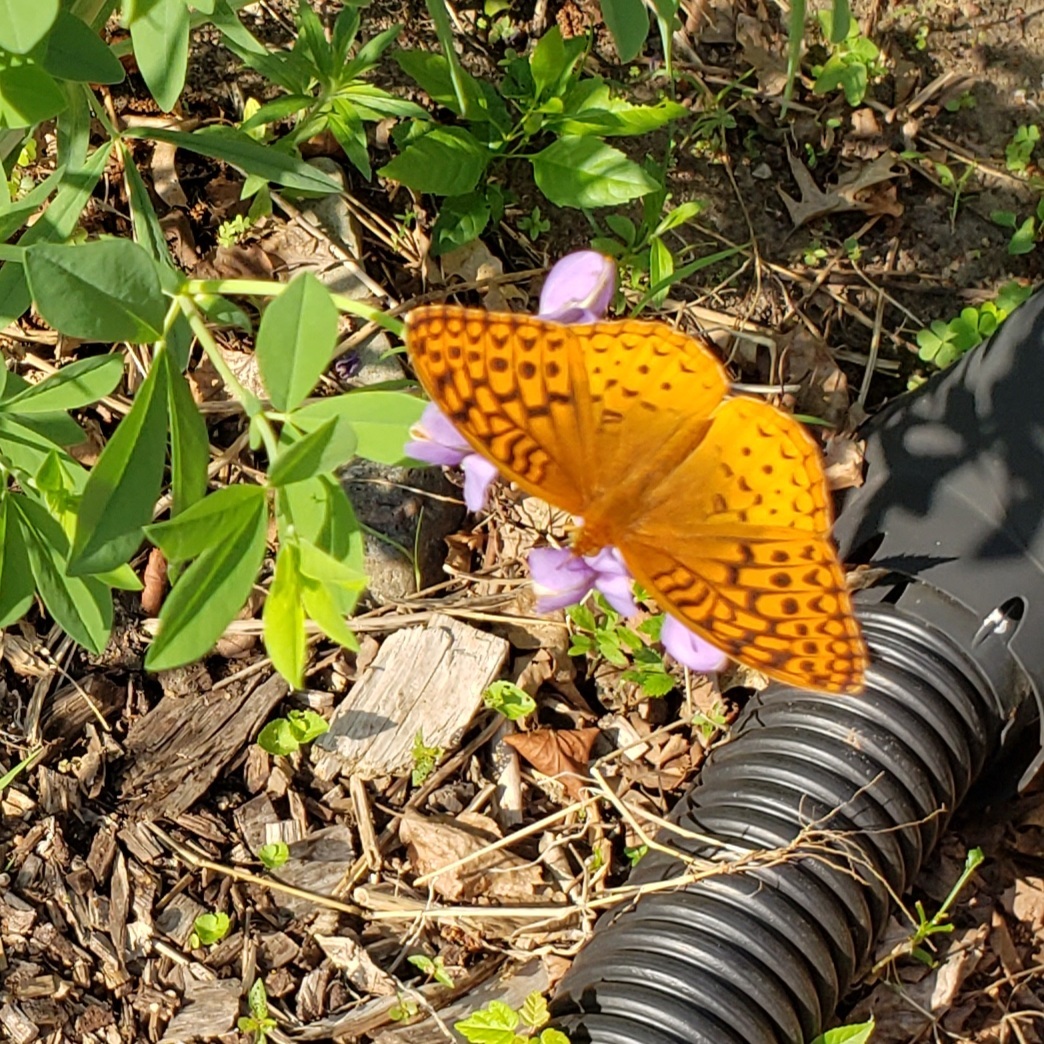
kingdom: Animalia
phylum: Arthropoda
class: Insecta
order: Lepidoptera
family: Nymphalidae
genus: Speyeria
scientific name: Speyeria cybele
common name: Great spangled fritillary
